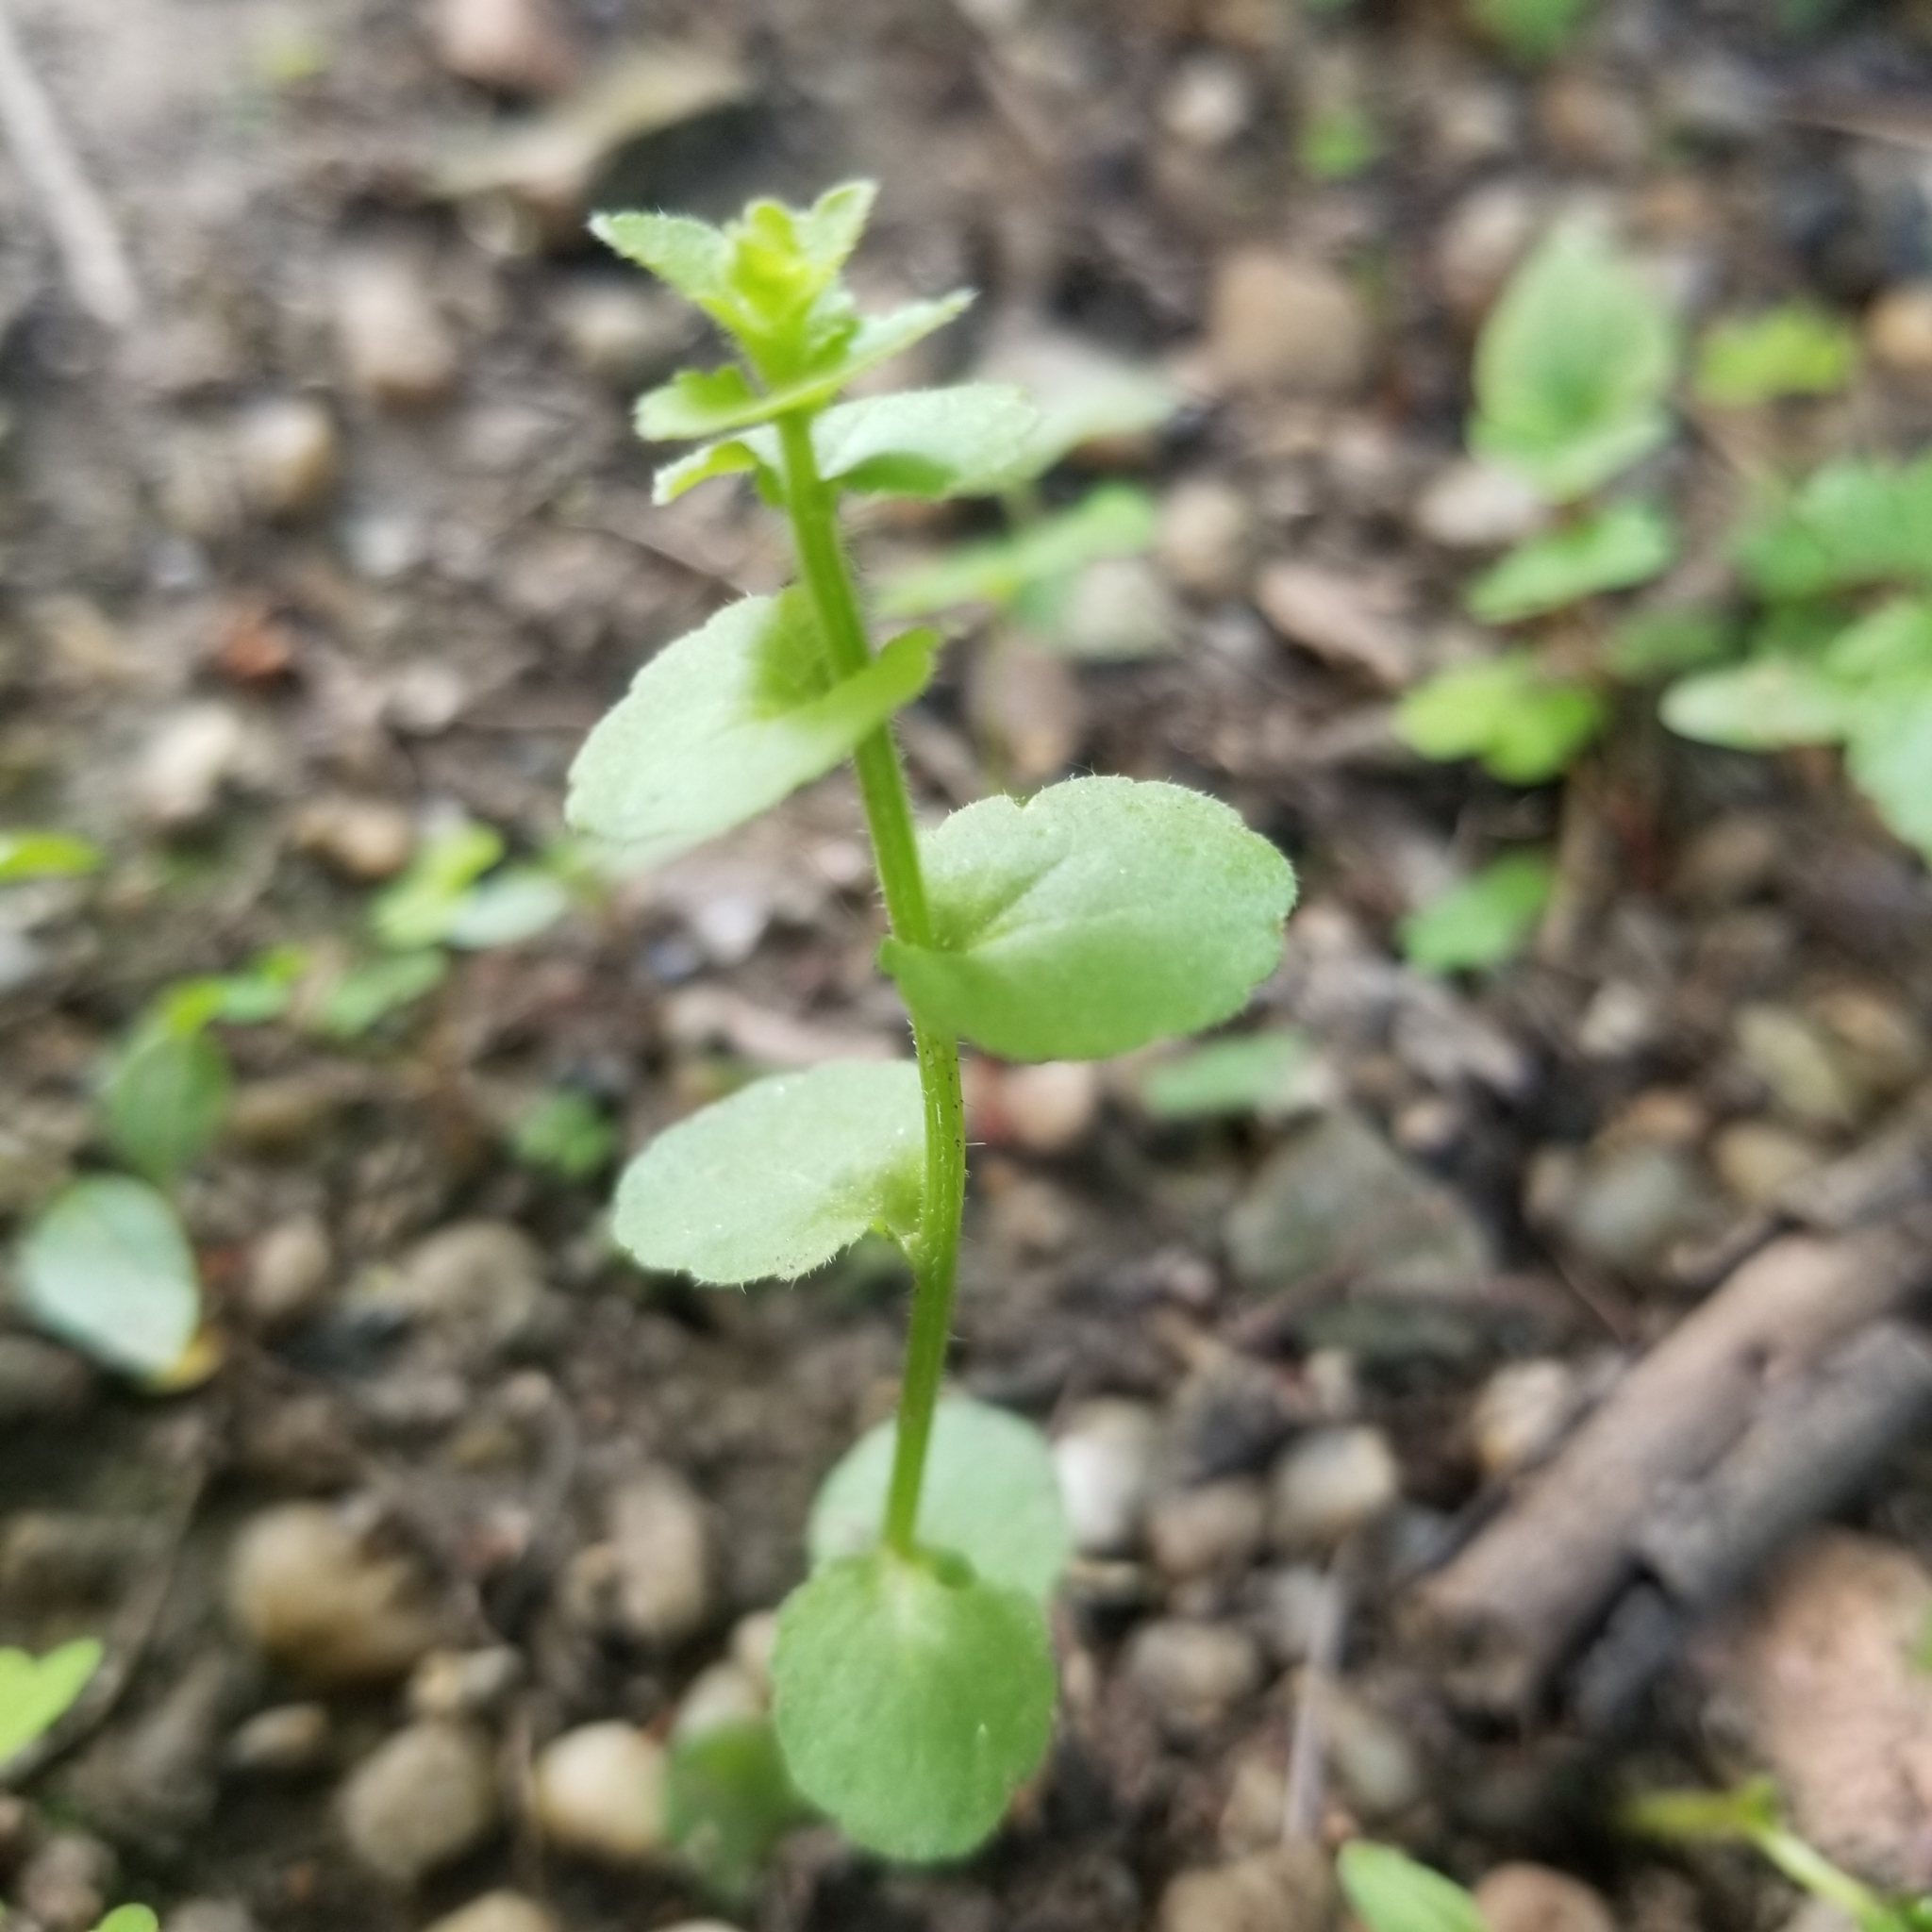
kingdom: Plantae
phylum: Tracheophyta
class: Magnoliopsida
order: Asterales
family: Campanulaceae
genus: Triodanis
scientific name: Triodanis perfoliata
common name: Clasping venus' looking-glass
